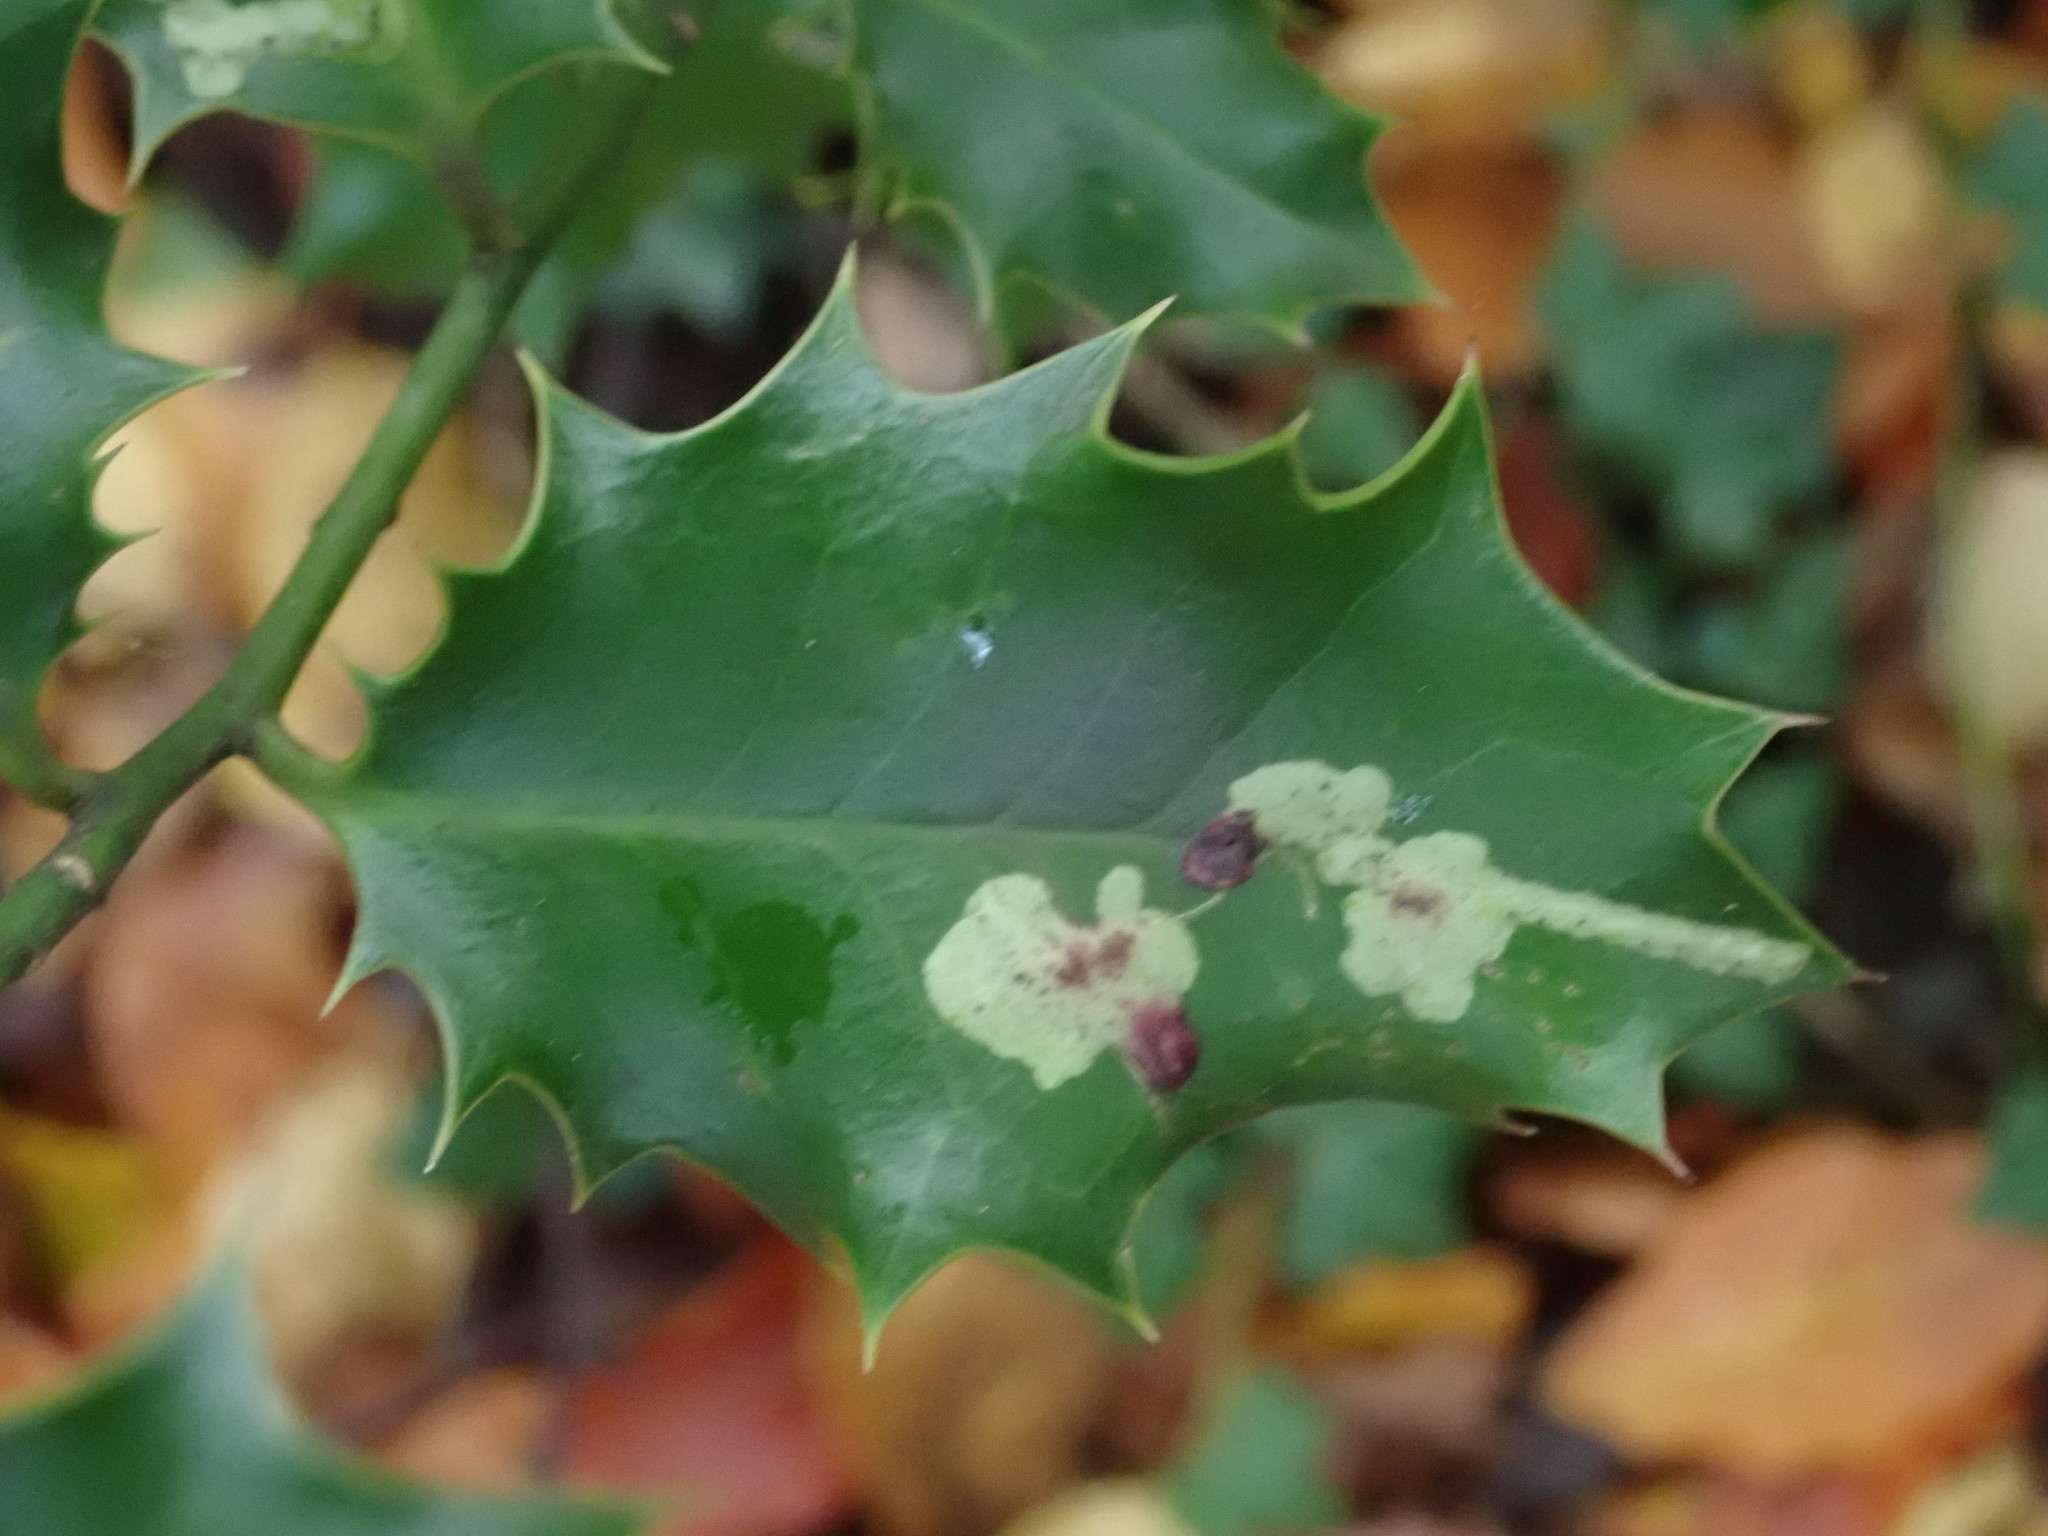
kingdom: Animalia
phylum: Arthropoda
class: Insecta
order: Diptera
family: Agromyzidae
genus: Phytomyza
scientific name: Phytomyza ilicis
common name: Holly leafminer
